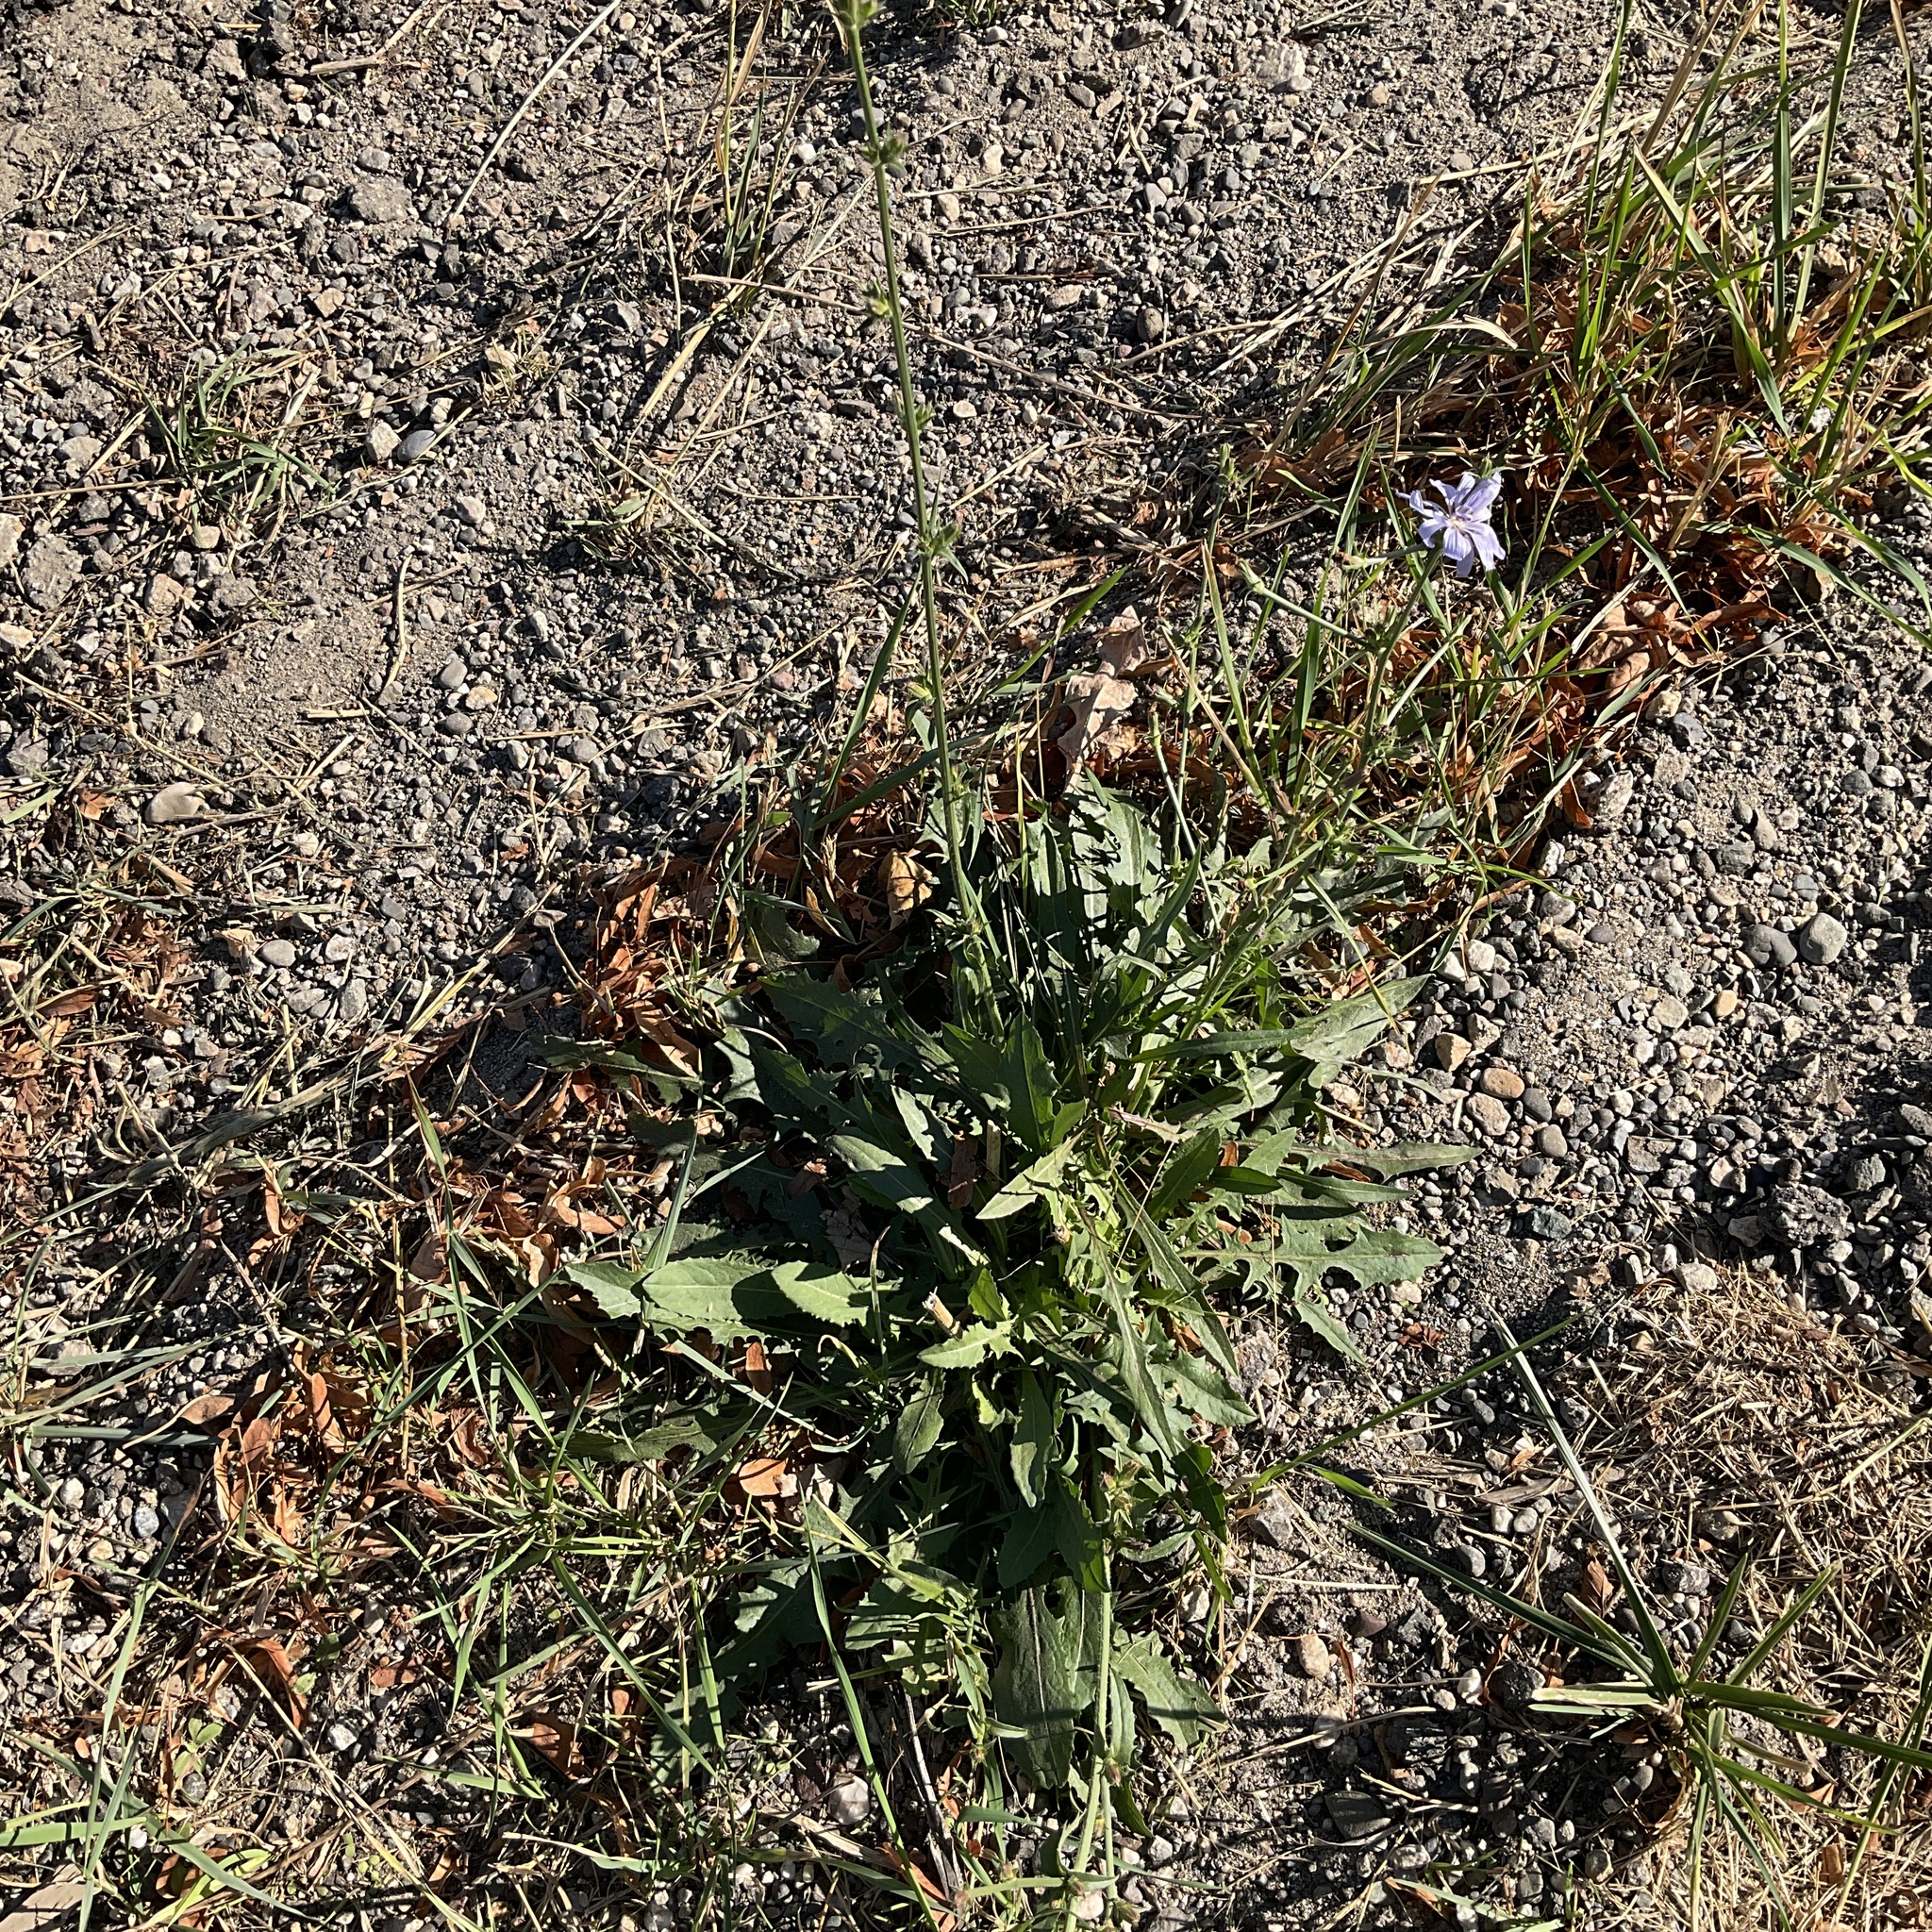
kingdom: Plantae
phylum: Tracheophyta
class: Magnoliopsida
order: Asterales
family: Asteraceae
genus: Cichorium
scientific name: Cichorium intybus
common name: Chicory
